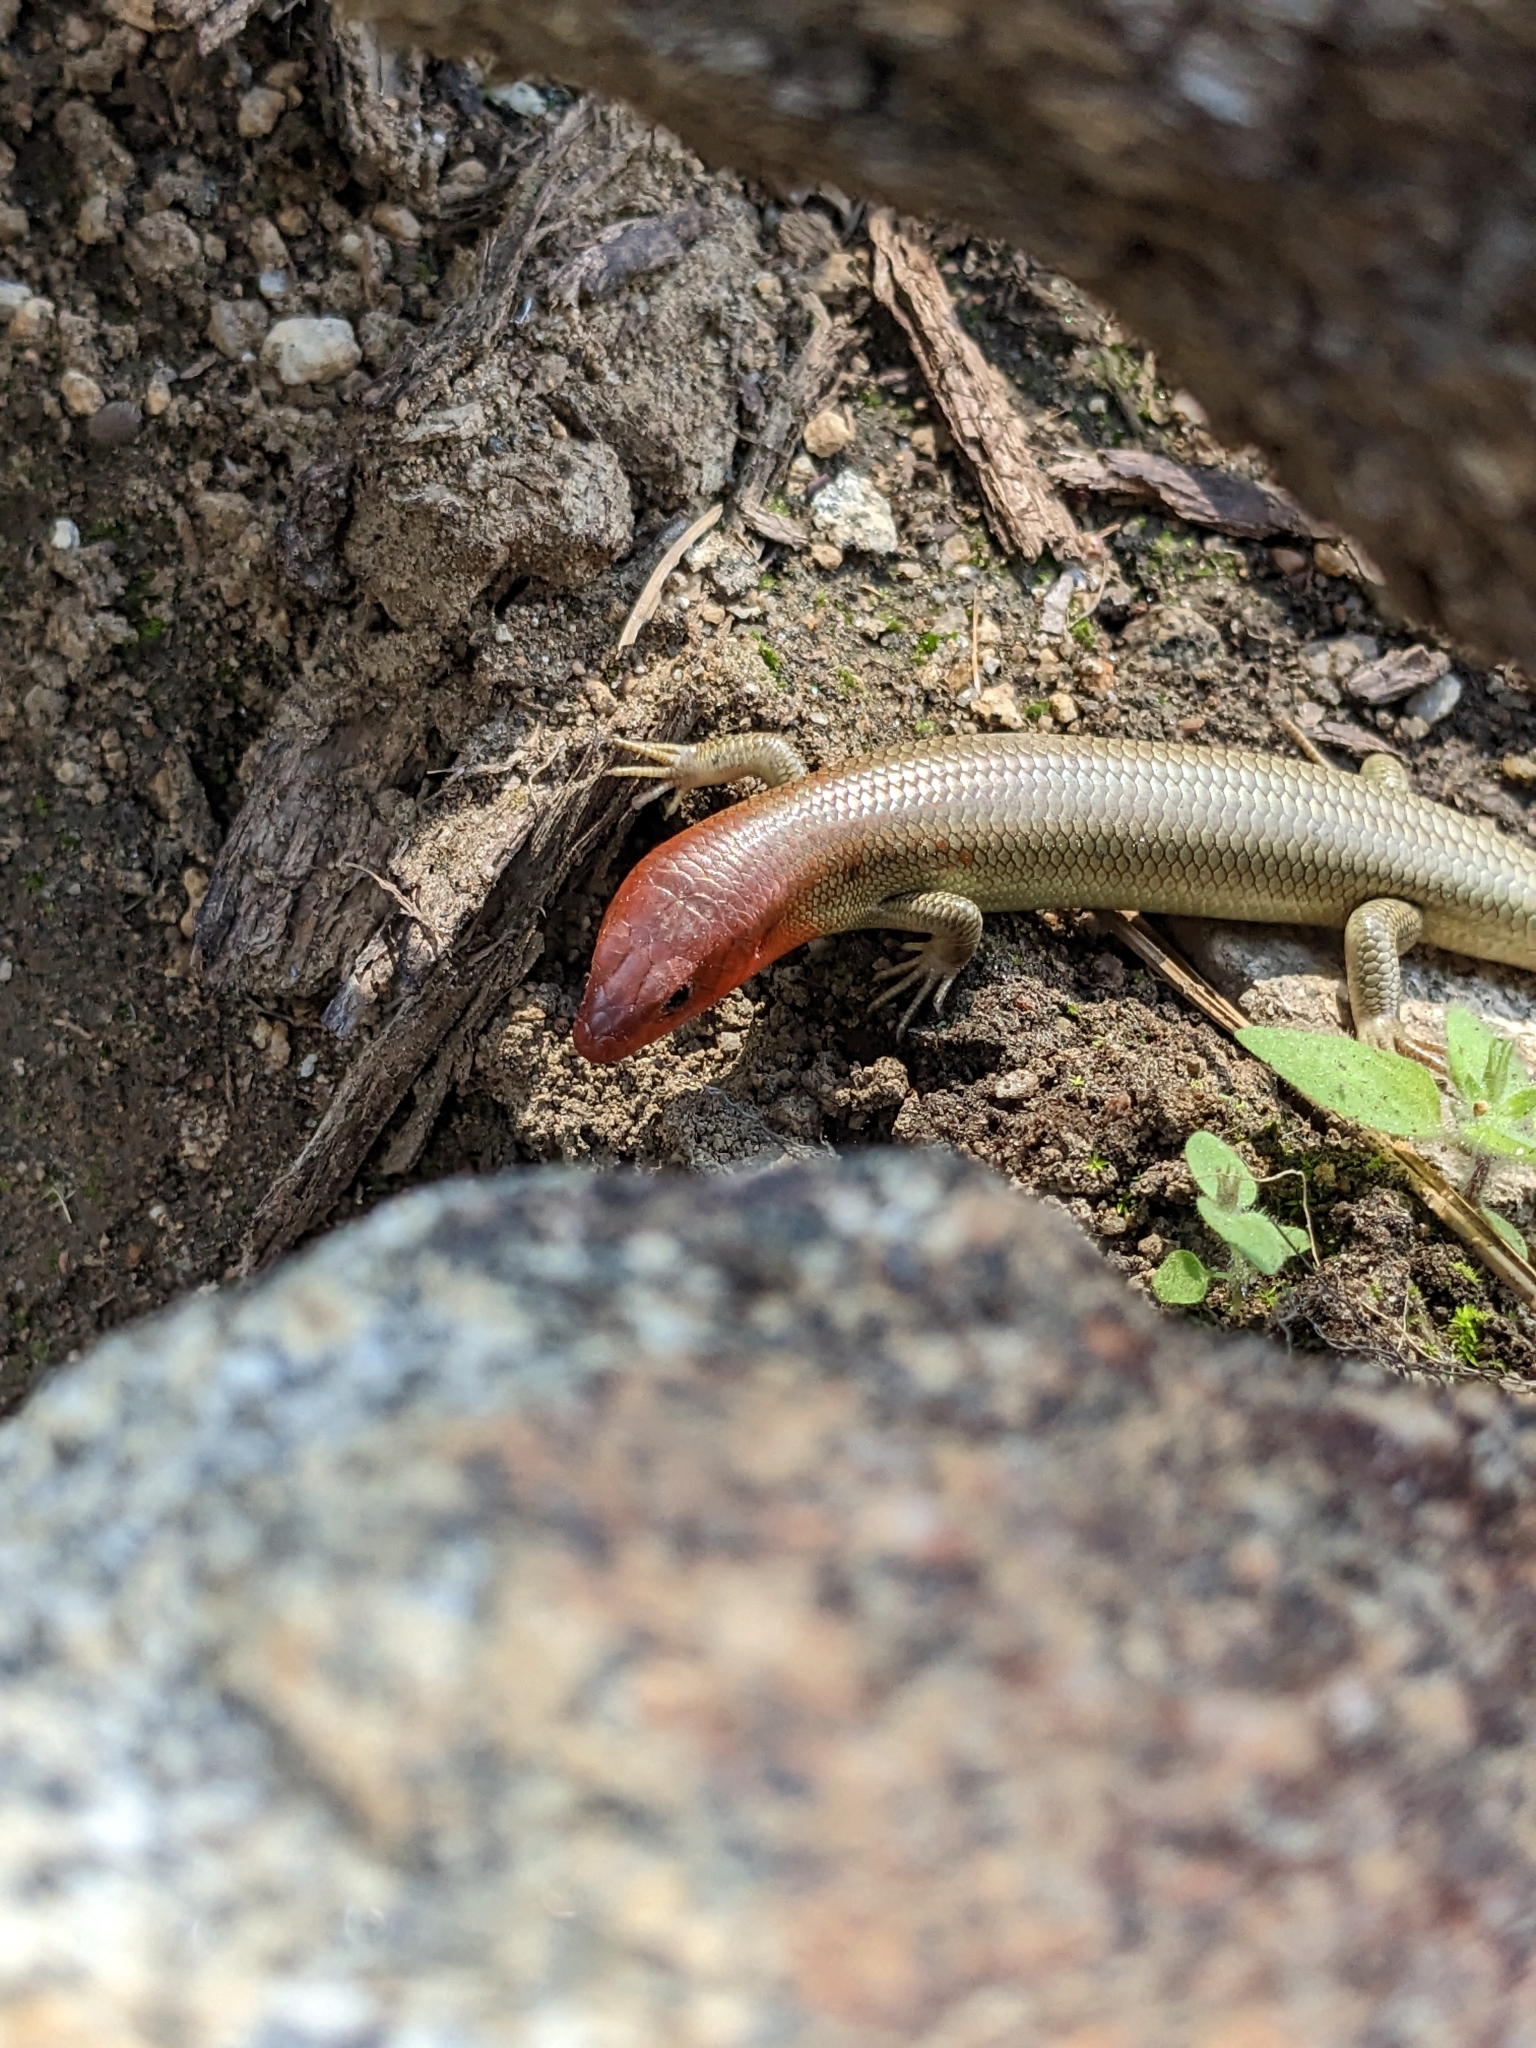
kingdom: Animalia
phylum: Chordata
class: Squamata
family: Scincidae
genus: Plestiodon
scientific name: Plestiodon gilberti
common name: Gilbert's skink
